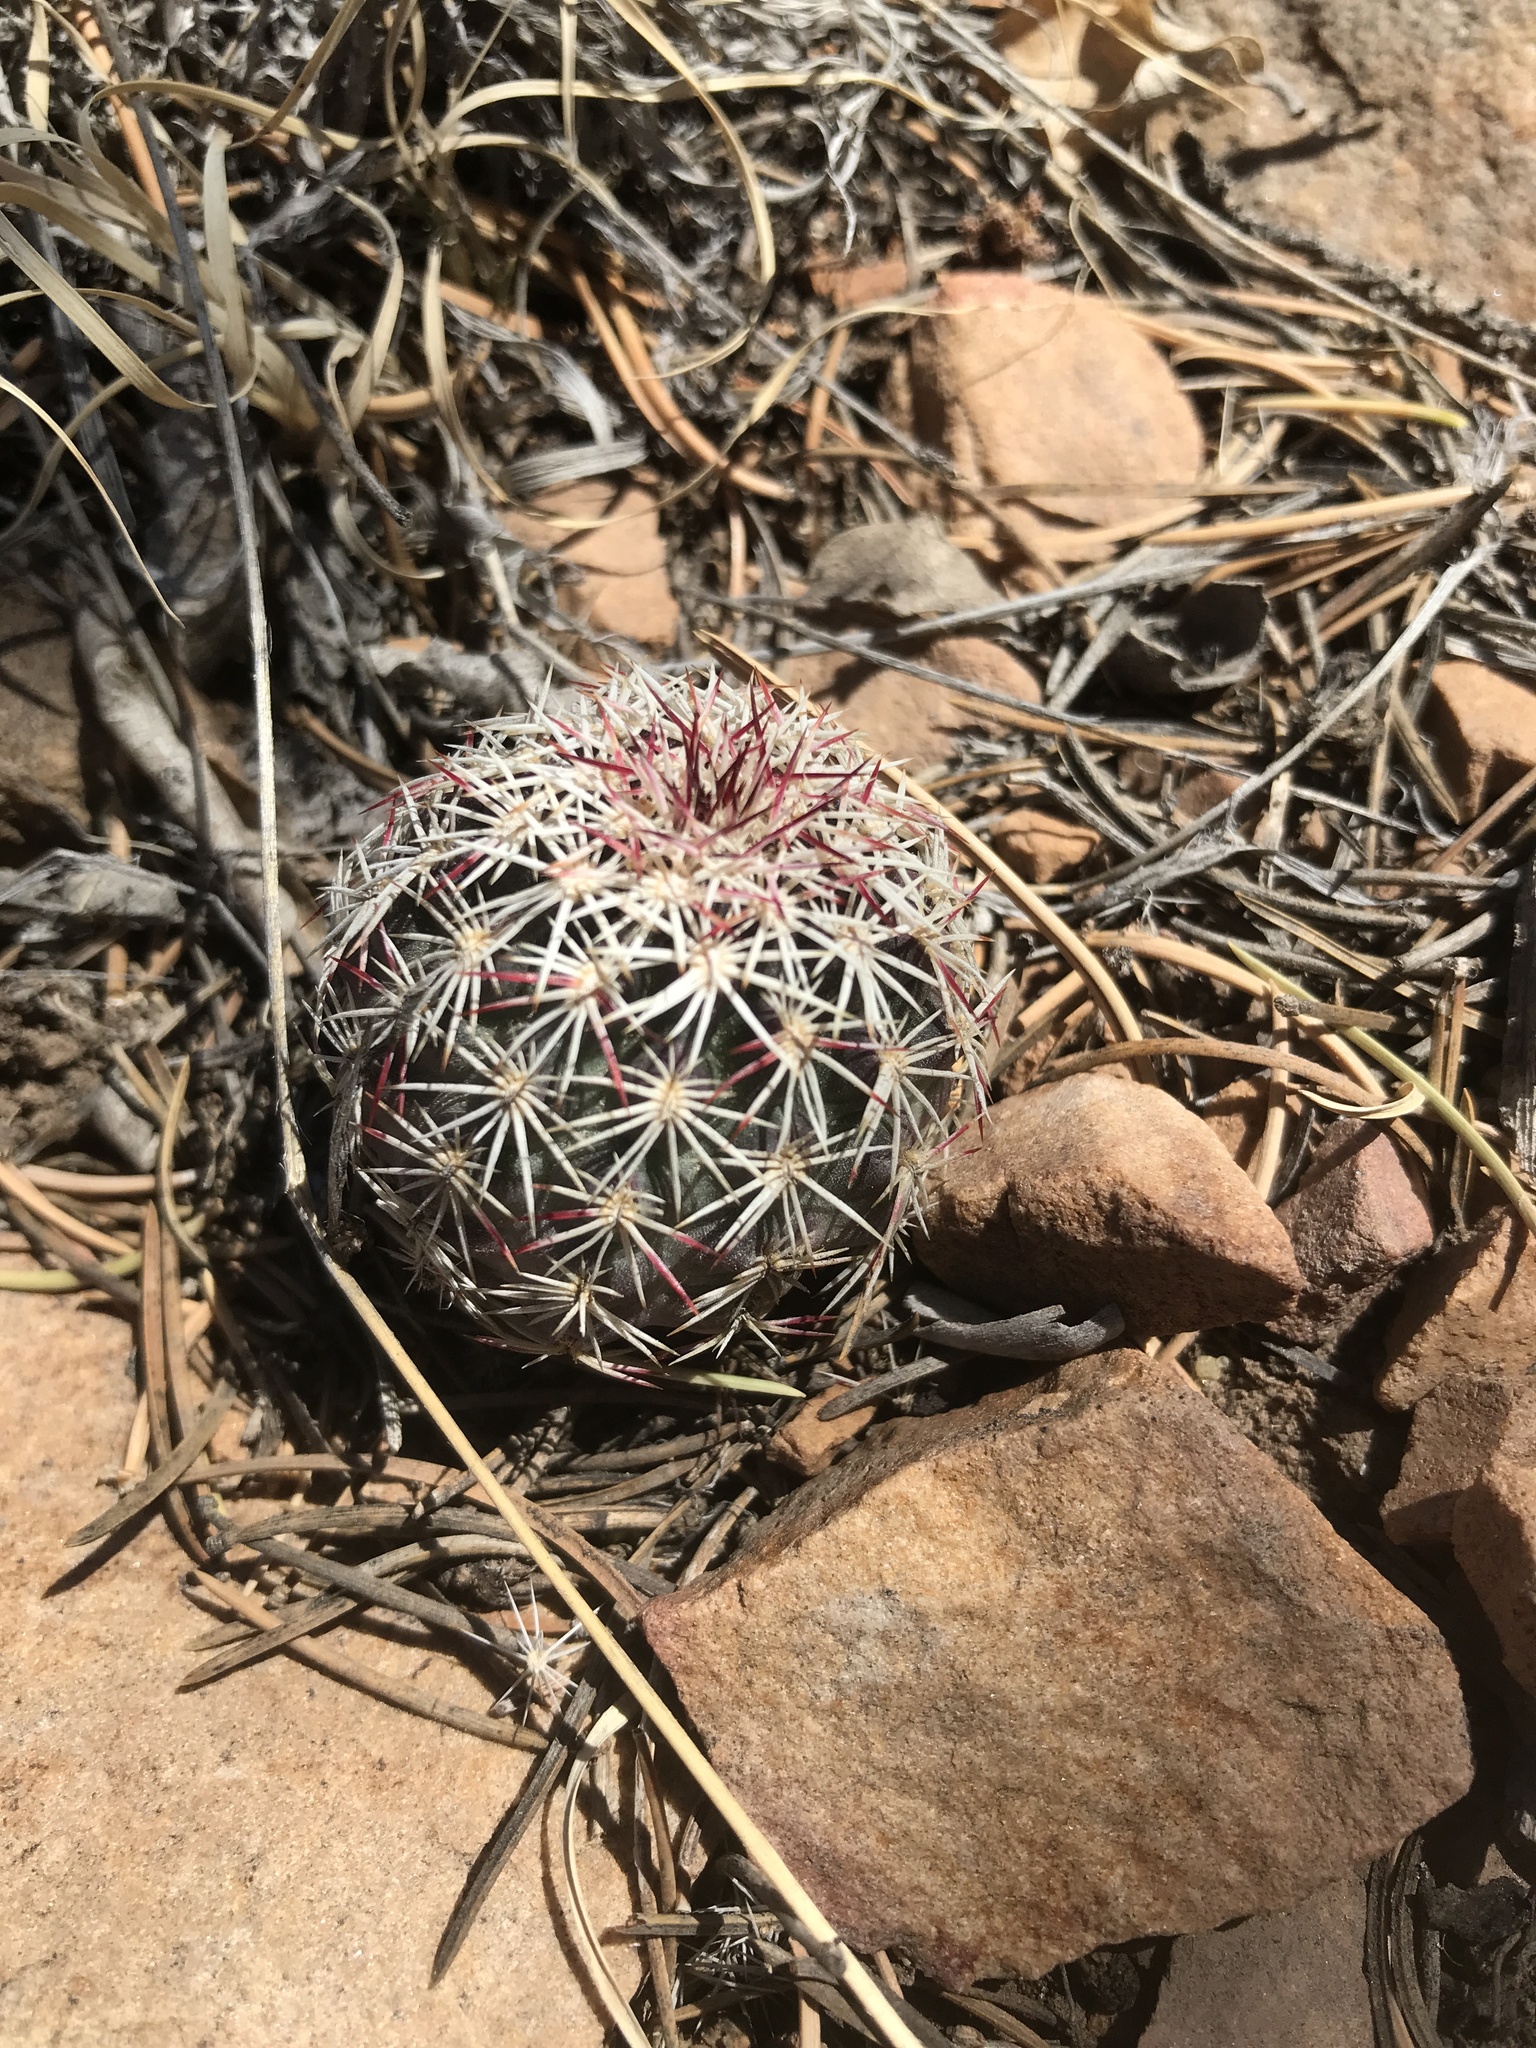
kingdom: Plantae
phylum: Tracheophyta
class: Magnoliopsida
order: Caryophyllales
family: Cactaceae
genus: Echinocereus
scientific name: Echinocereus viridiflorus
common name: Nylon hedgehog cactus
